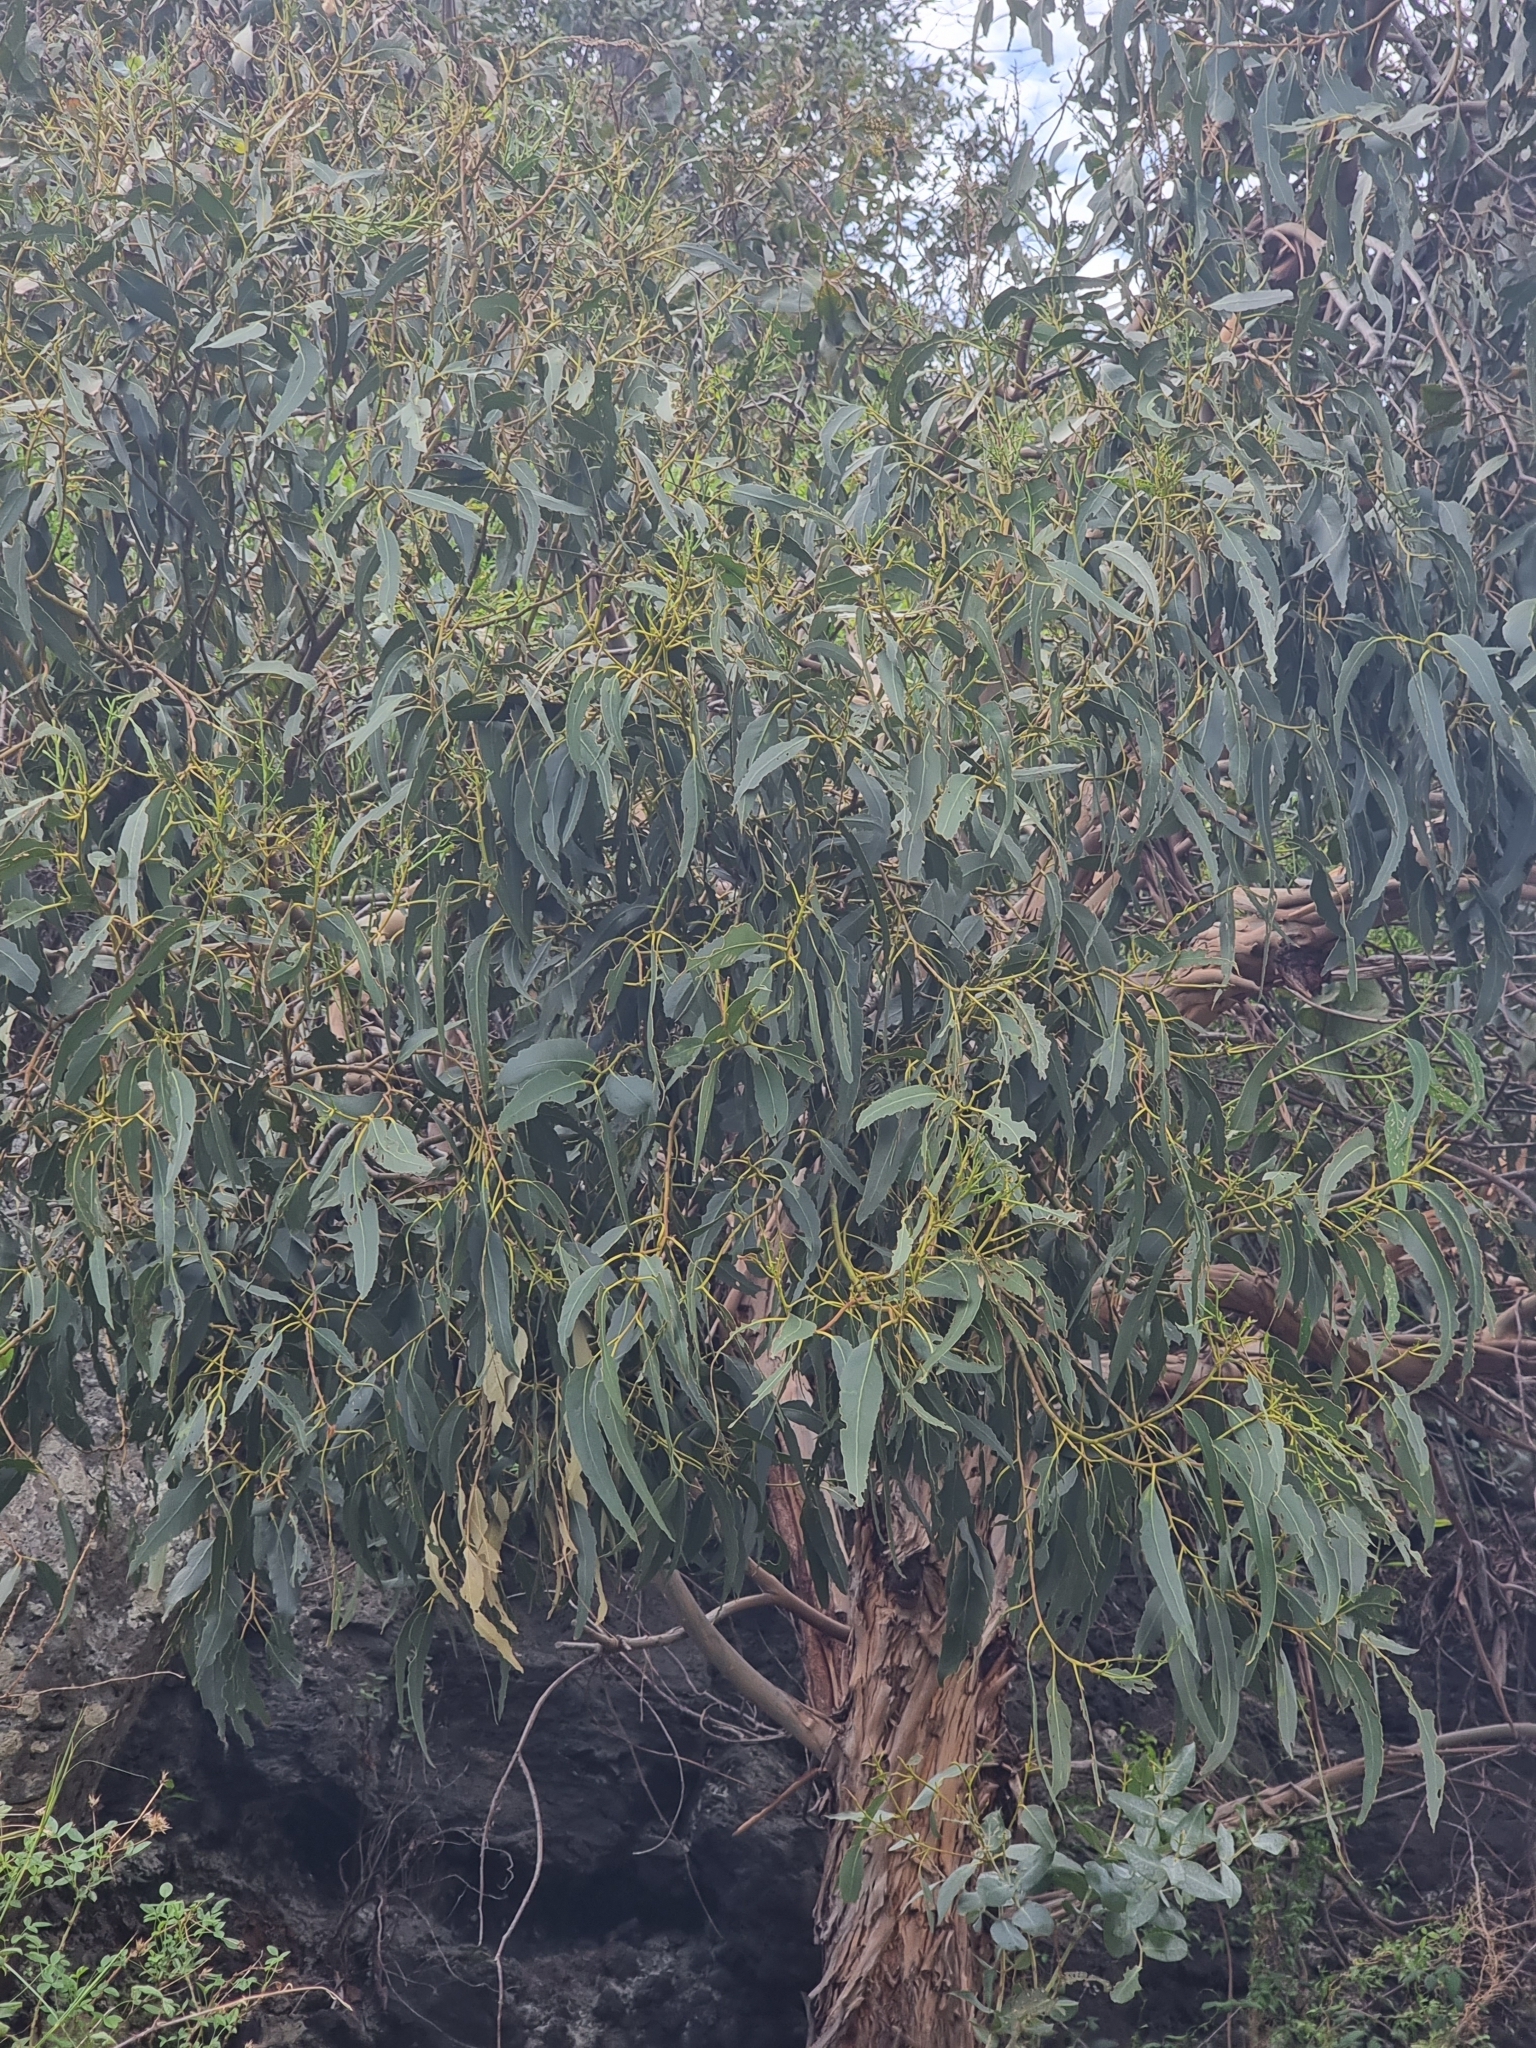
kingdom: Plantae
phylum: Tracheophyta
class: Magnoliopsida
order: Myrtales
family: Myrtaceae
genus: Eucalyptus
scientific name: Eucalyptus globulus
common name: Southern blue-gum
